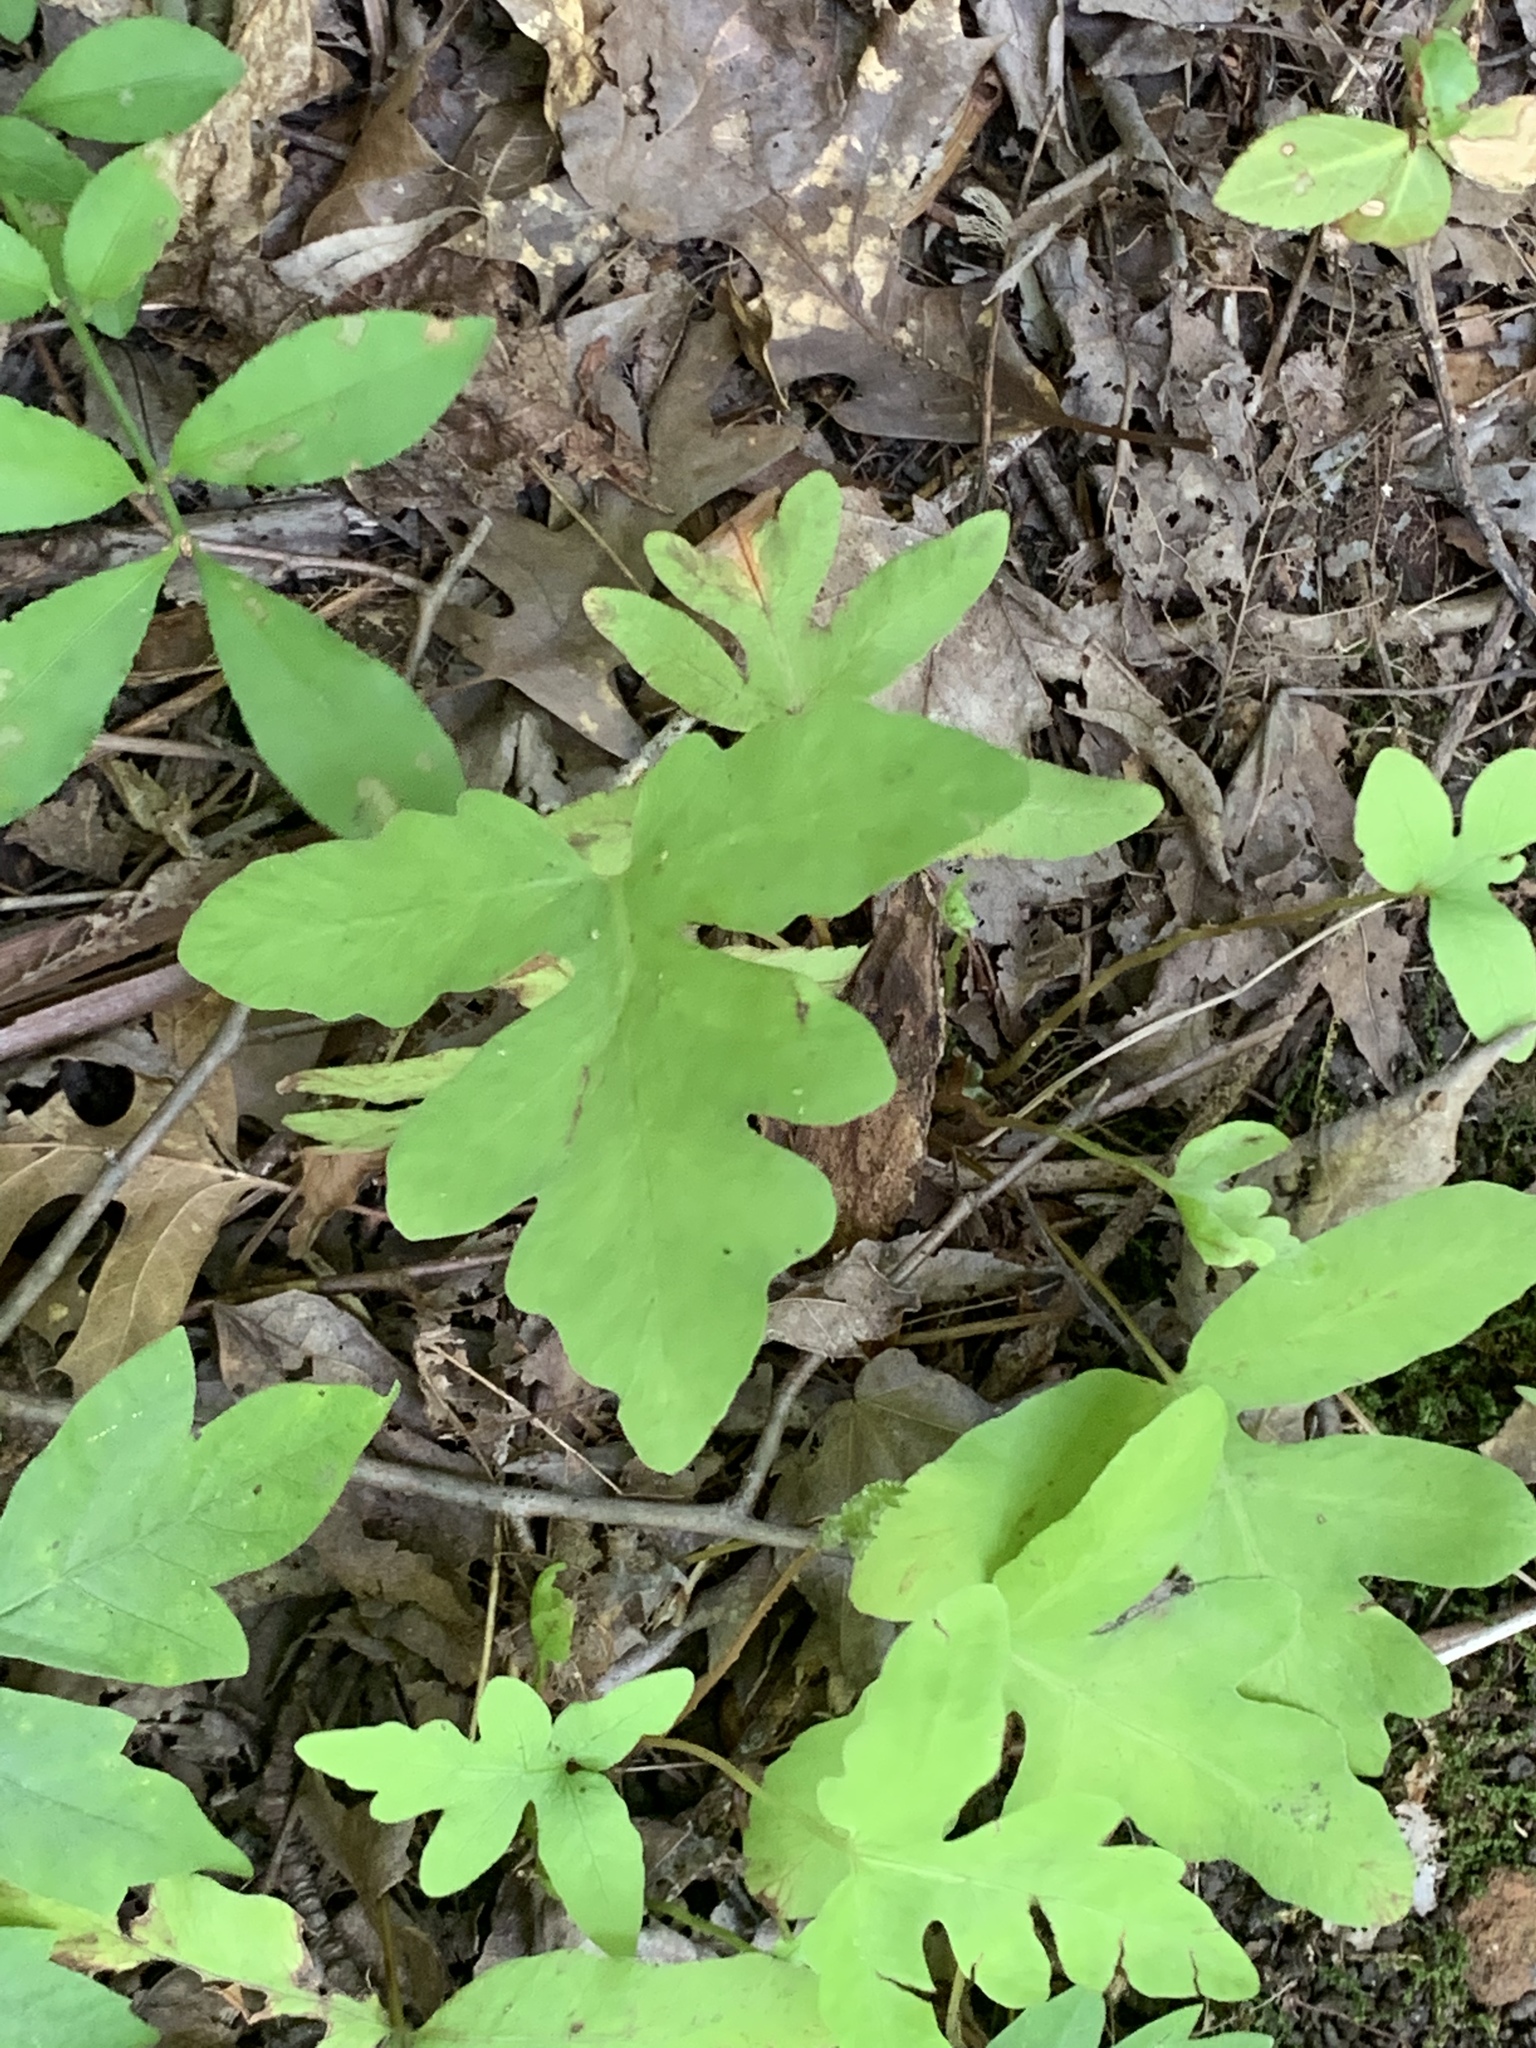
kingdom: Plantae
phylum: Tracheophyta
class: Polypodiopsida
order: Polypodiales
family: Onocleaceae
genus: Onoclea
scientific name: Onoclea sensibilis
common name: Sensitive fern
